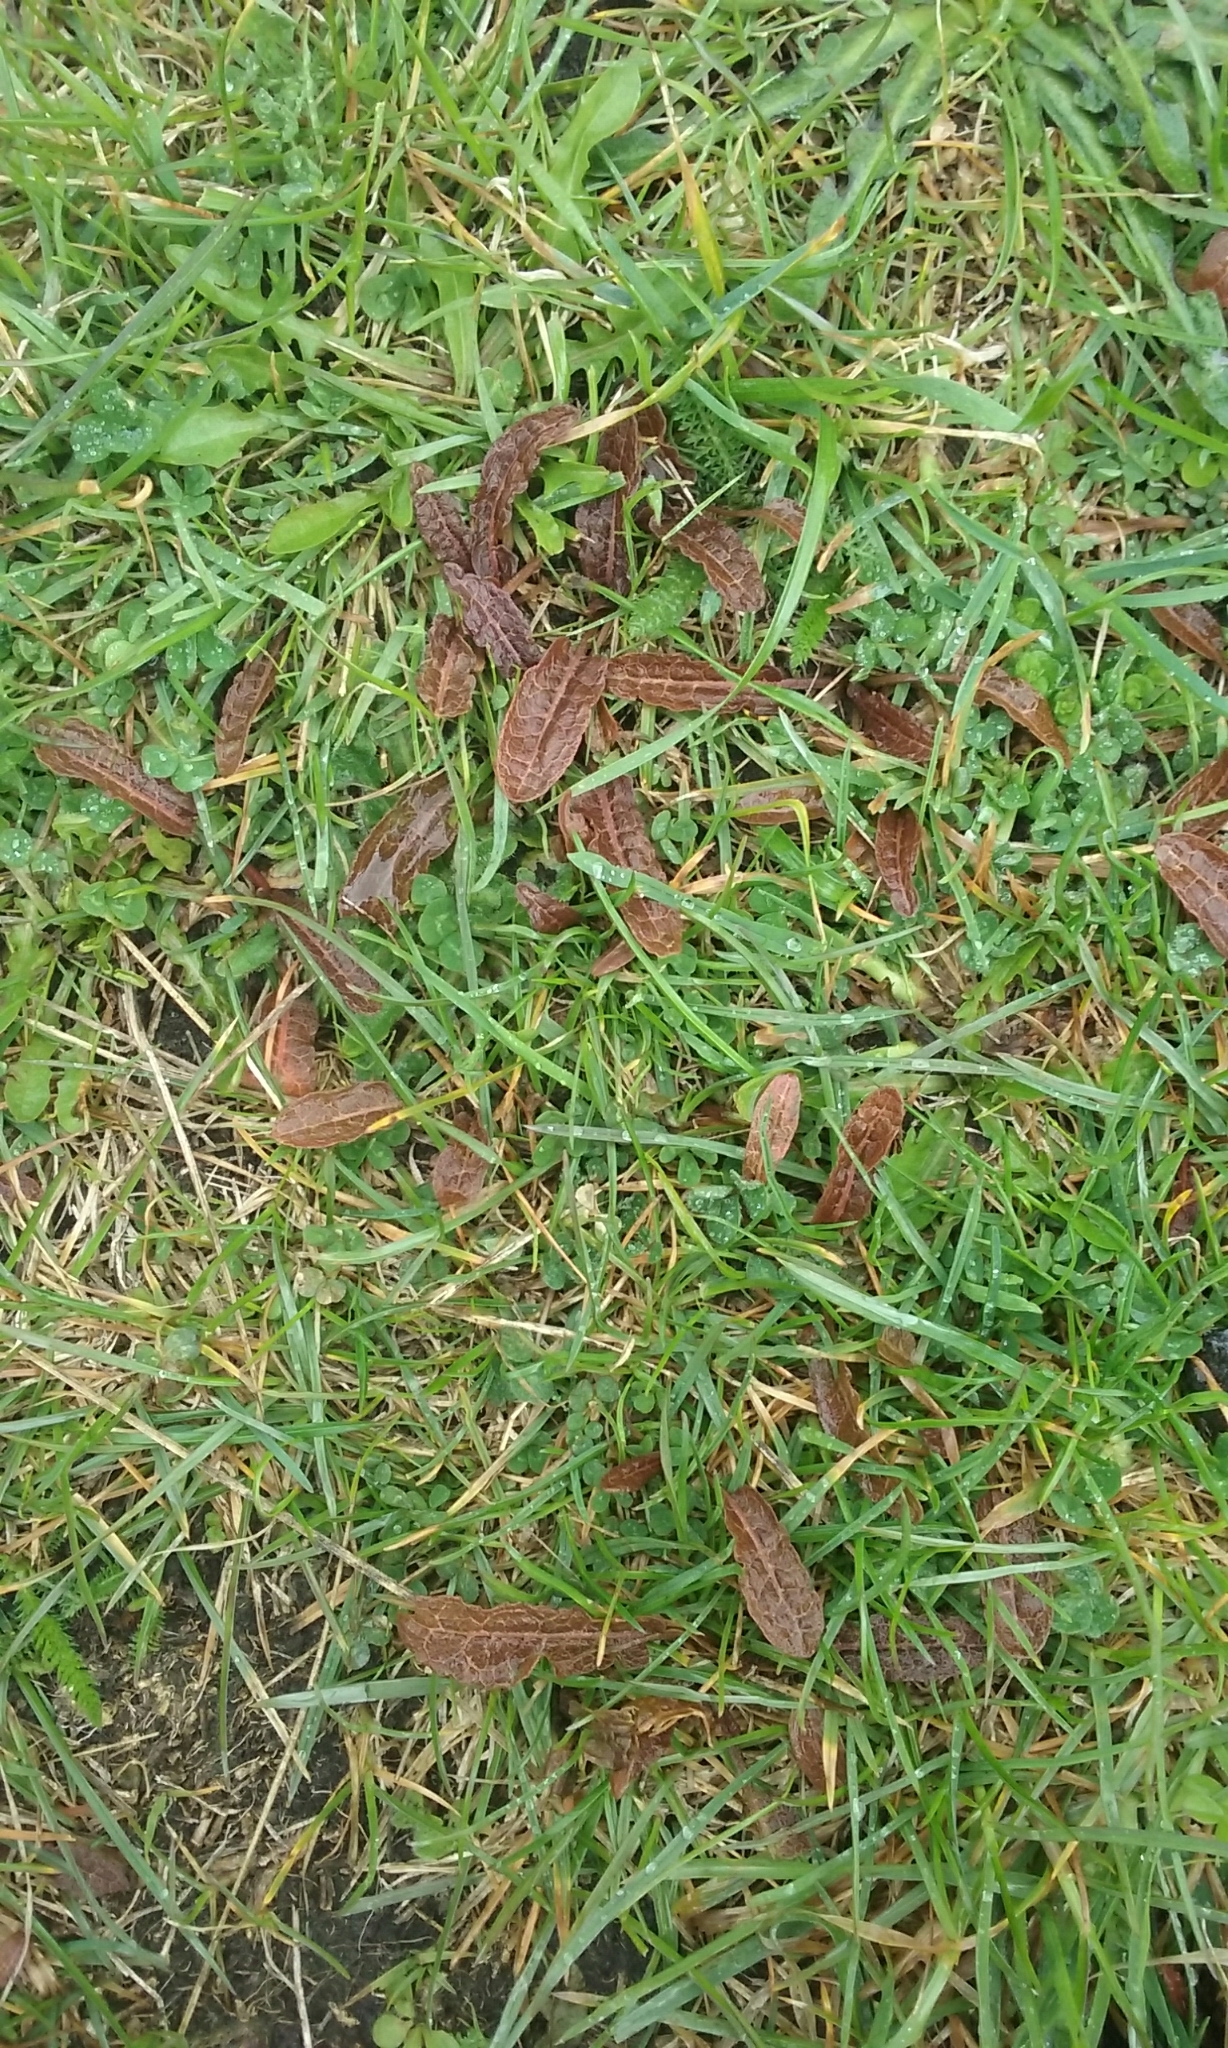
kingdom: Plantae
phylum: Tracheophyta
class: Magnoliopsida
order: Caryophyllales
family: Polygonaceae
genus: Rumex
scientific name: Rumex flexuosus
